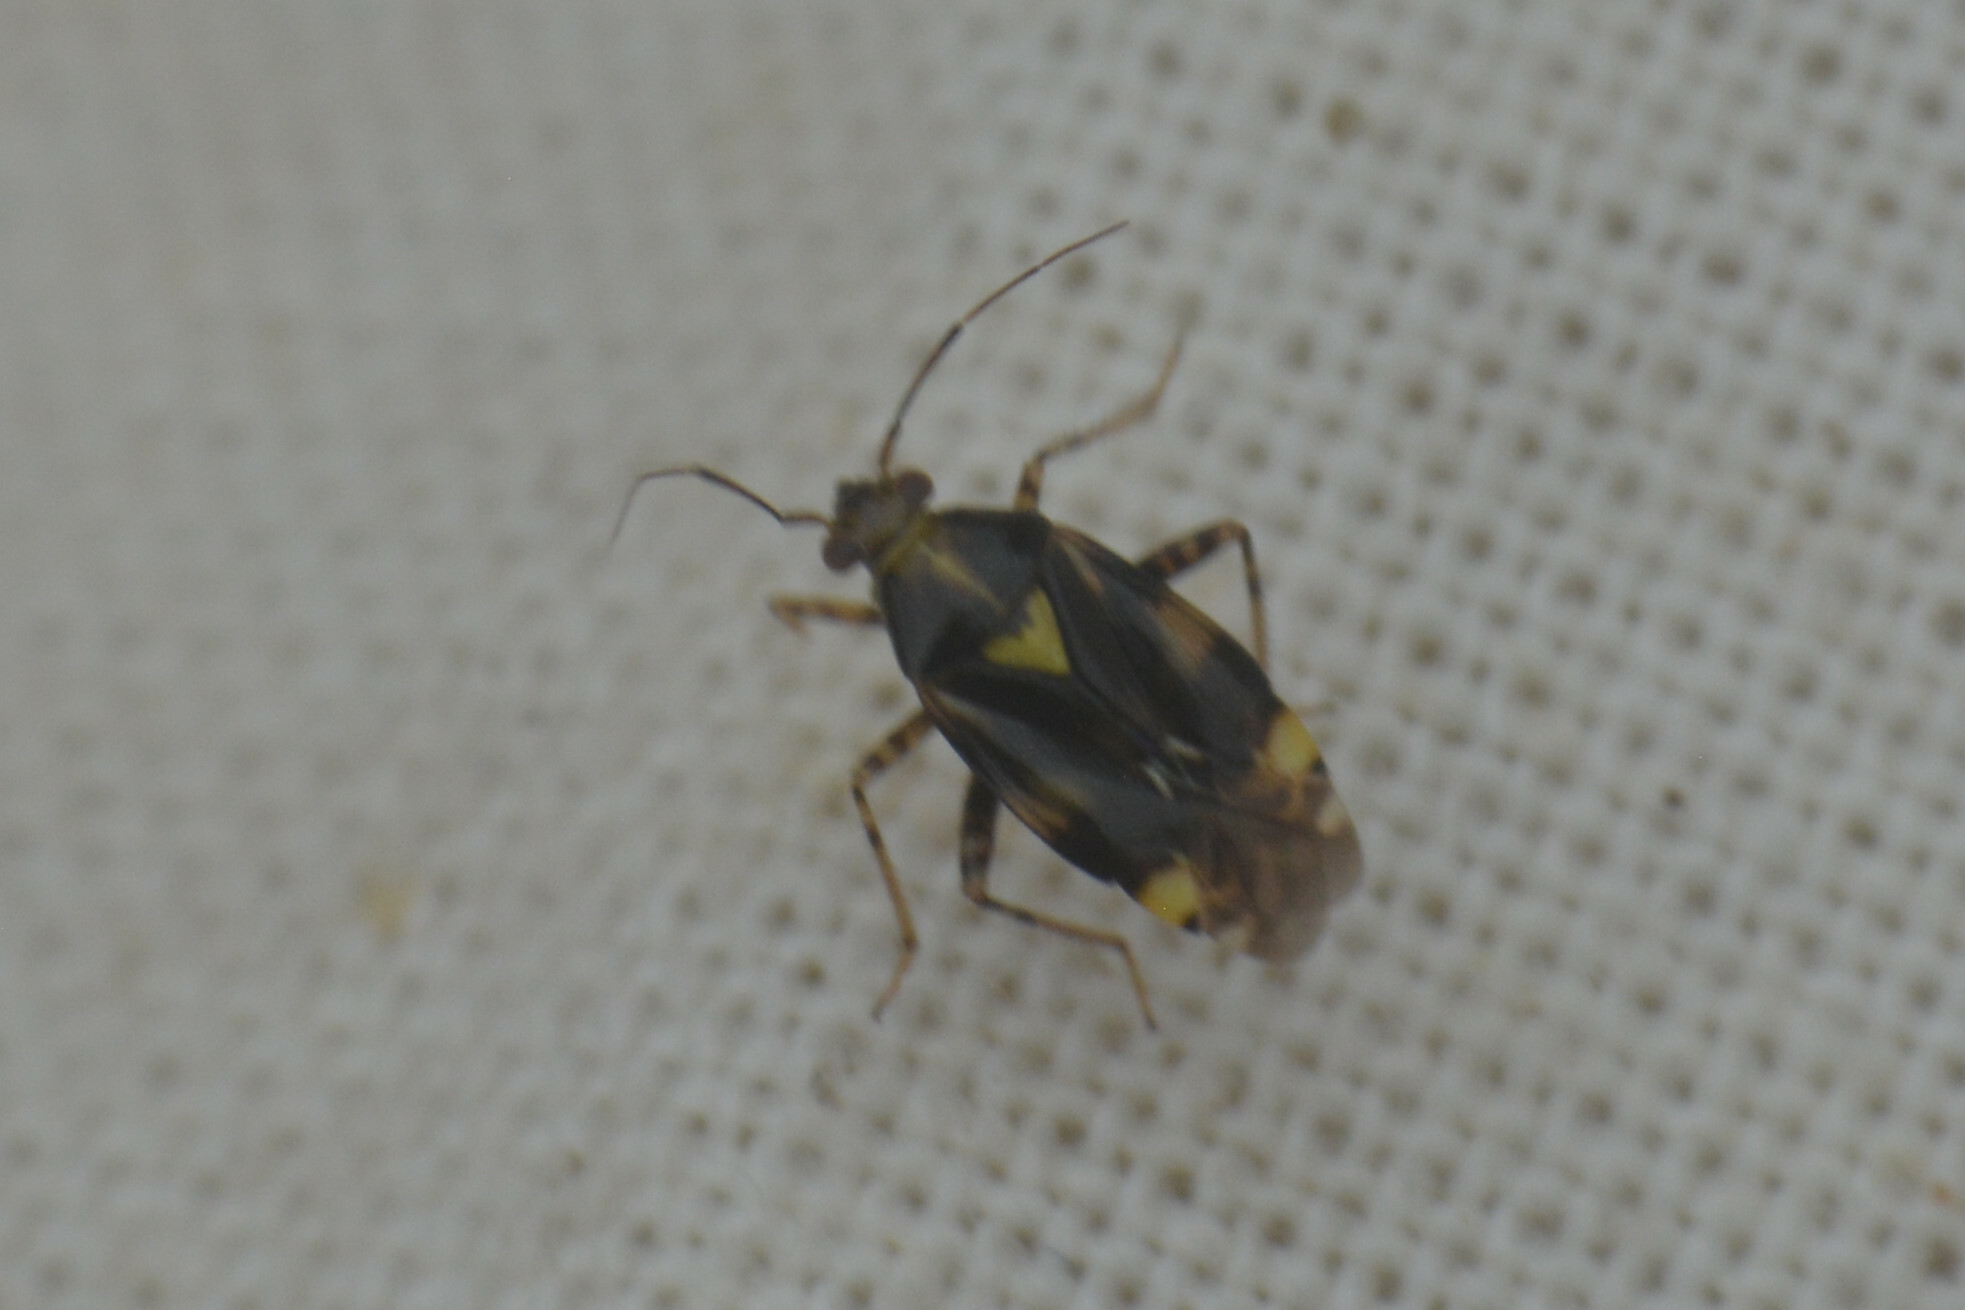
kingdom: Animalia
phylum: Arthropoda
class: Insecta
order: Hemiptera
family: Miridae
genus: Liocoris
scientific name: Liocoris tripustulatus
